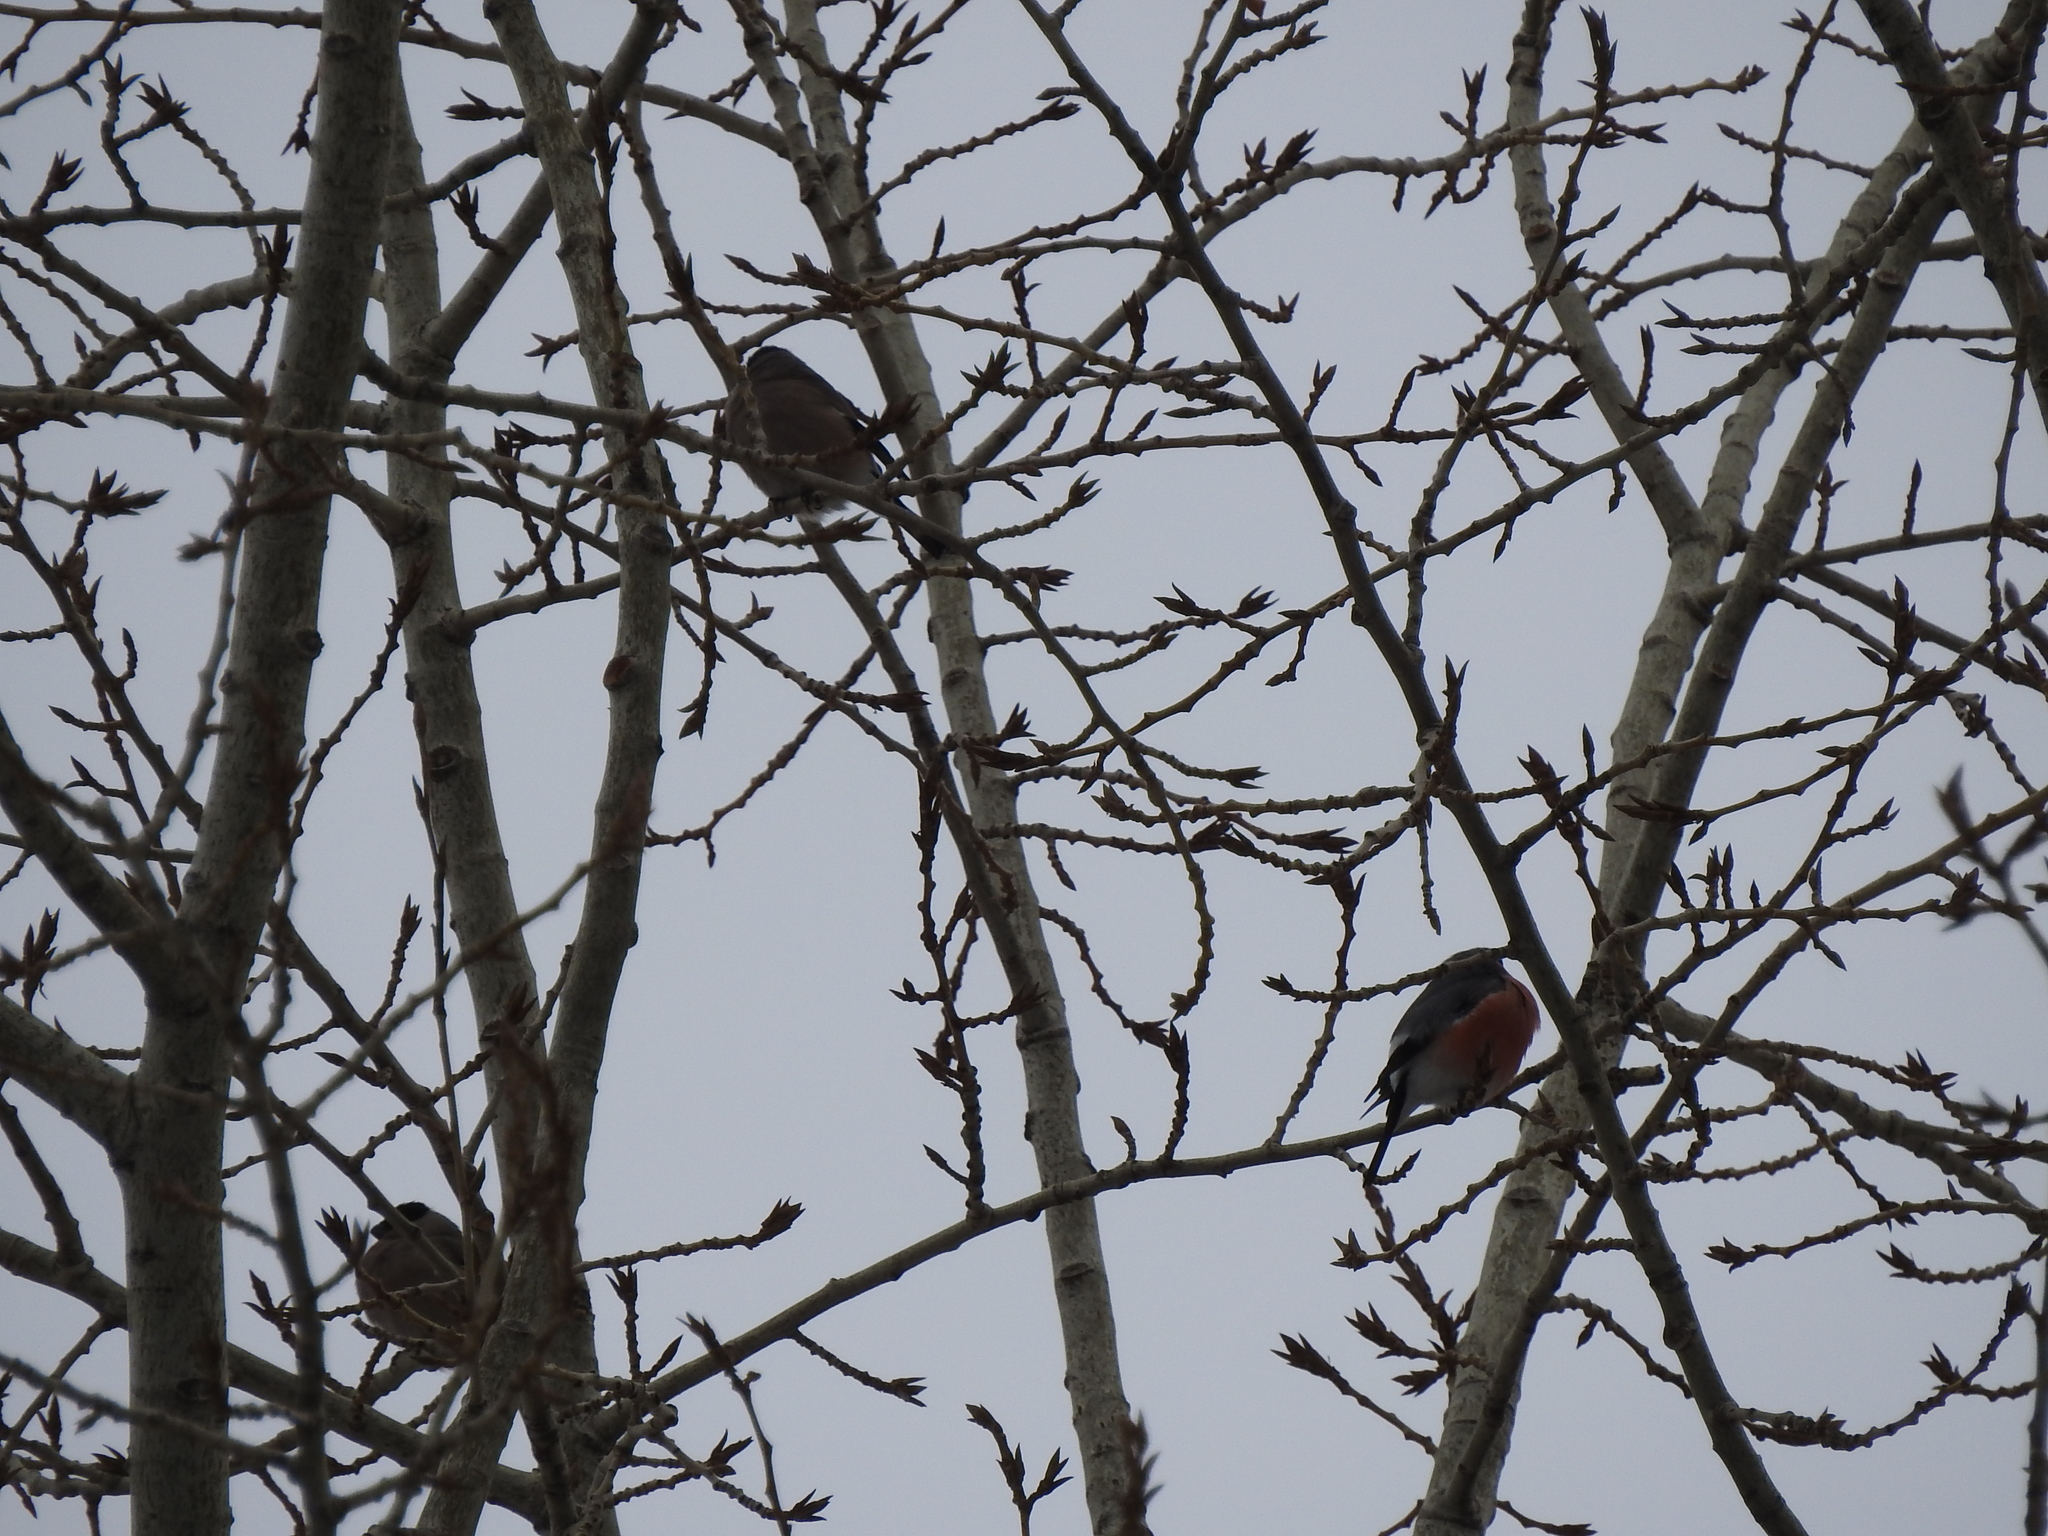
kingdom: Animalia
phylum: Chordata
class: Aves
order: Passeriformes
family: Fringillidae
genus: Pyrrhula
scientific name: Pyrrhula pyrrhula
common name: Eurasian bullfinch
